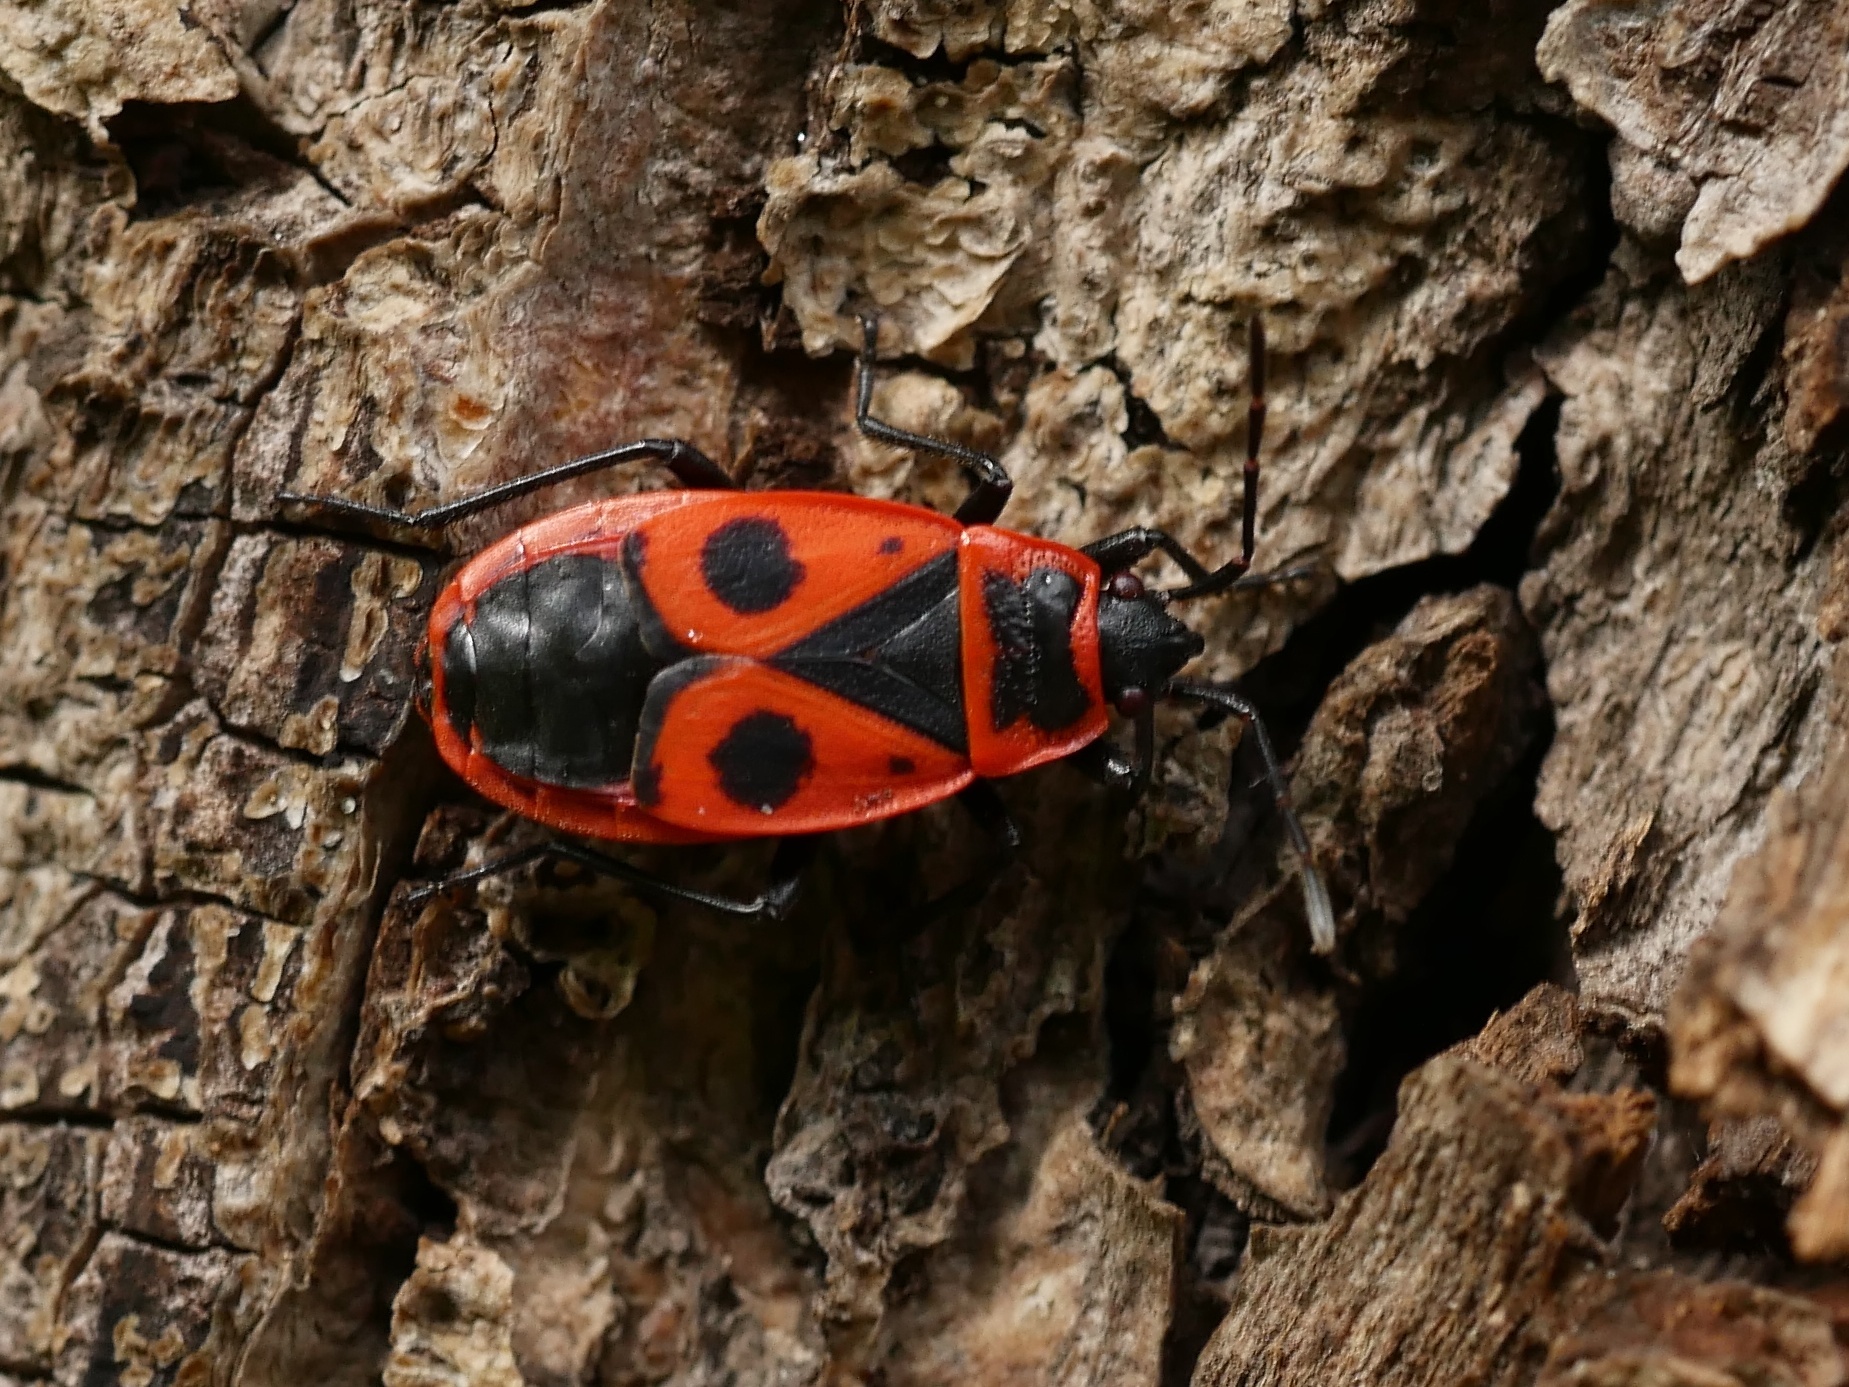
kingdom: Animalia
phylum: Arthropoda
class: Insecta
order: Hemiptera
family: Pyrrhocoridae
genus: Pyrrhocoris
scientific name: Pyrrhocoris apterus
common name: Firebug
